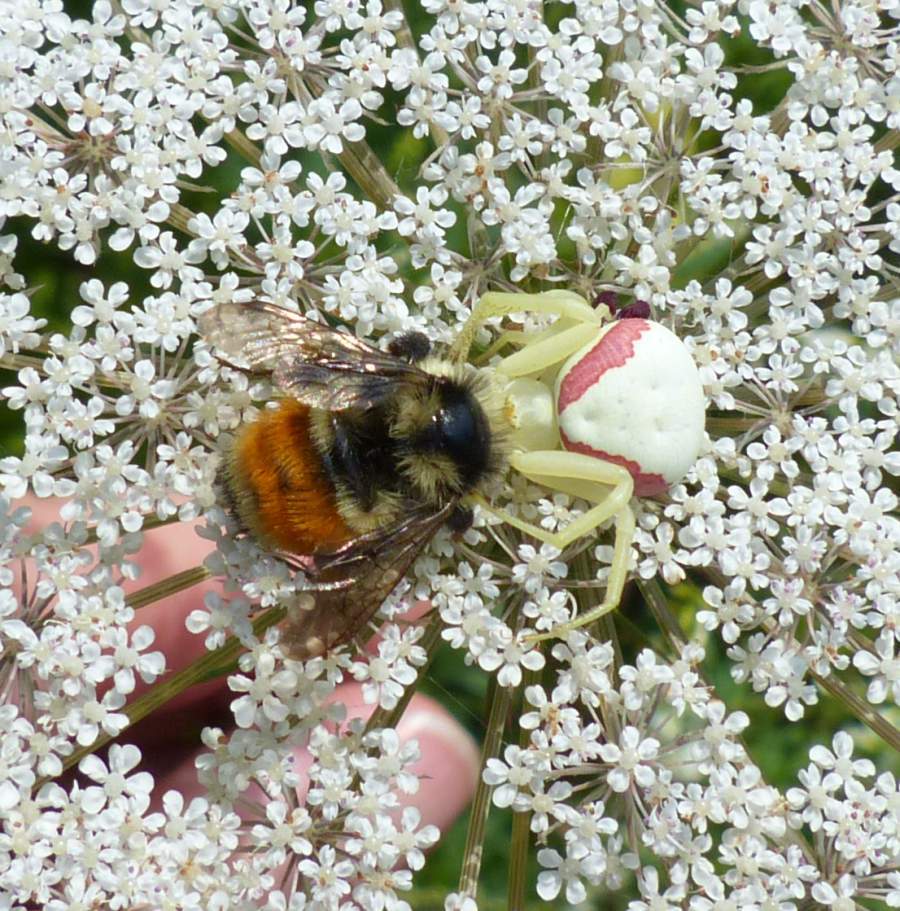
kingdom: Animalia
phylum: Arthropoda
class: Insecta
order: Hymenoptera
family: Apidae
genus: Bombus
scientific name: Bombus ternarius
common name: Tri-colored bumble bee
